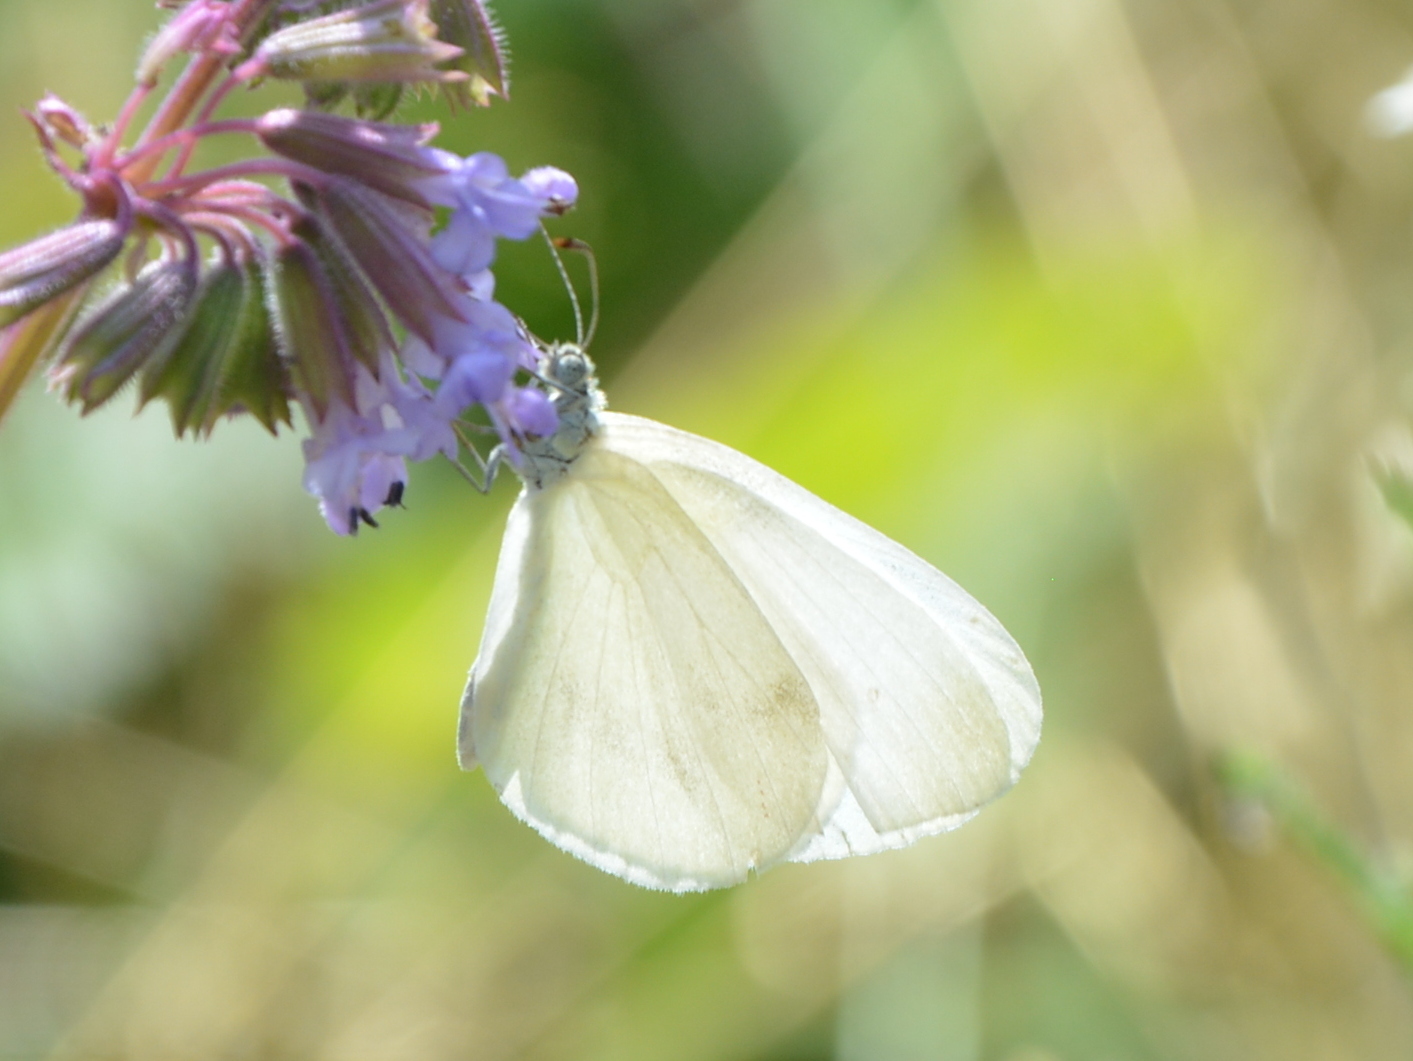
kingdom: Animalia
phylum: Arthropoda
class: Insecta
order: Lepidoptera
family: Pieridae
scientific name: Pieridae
